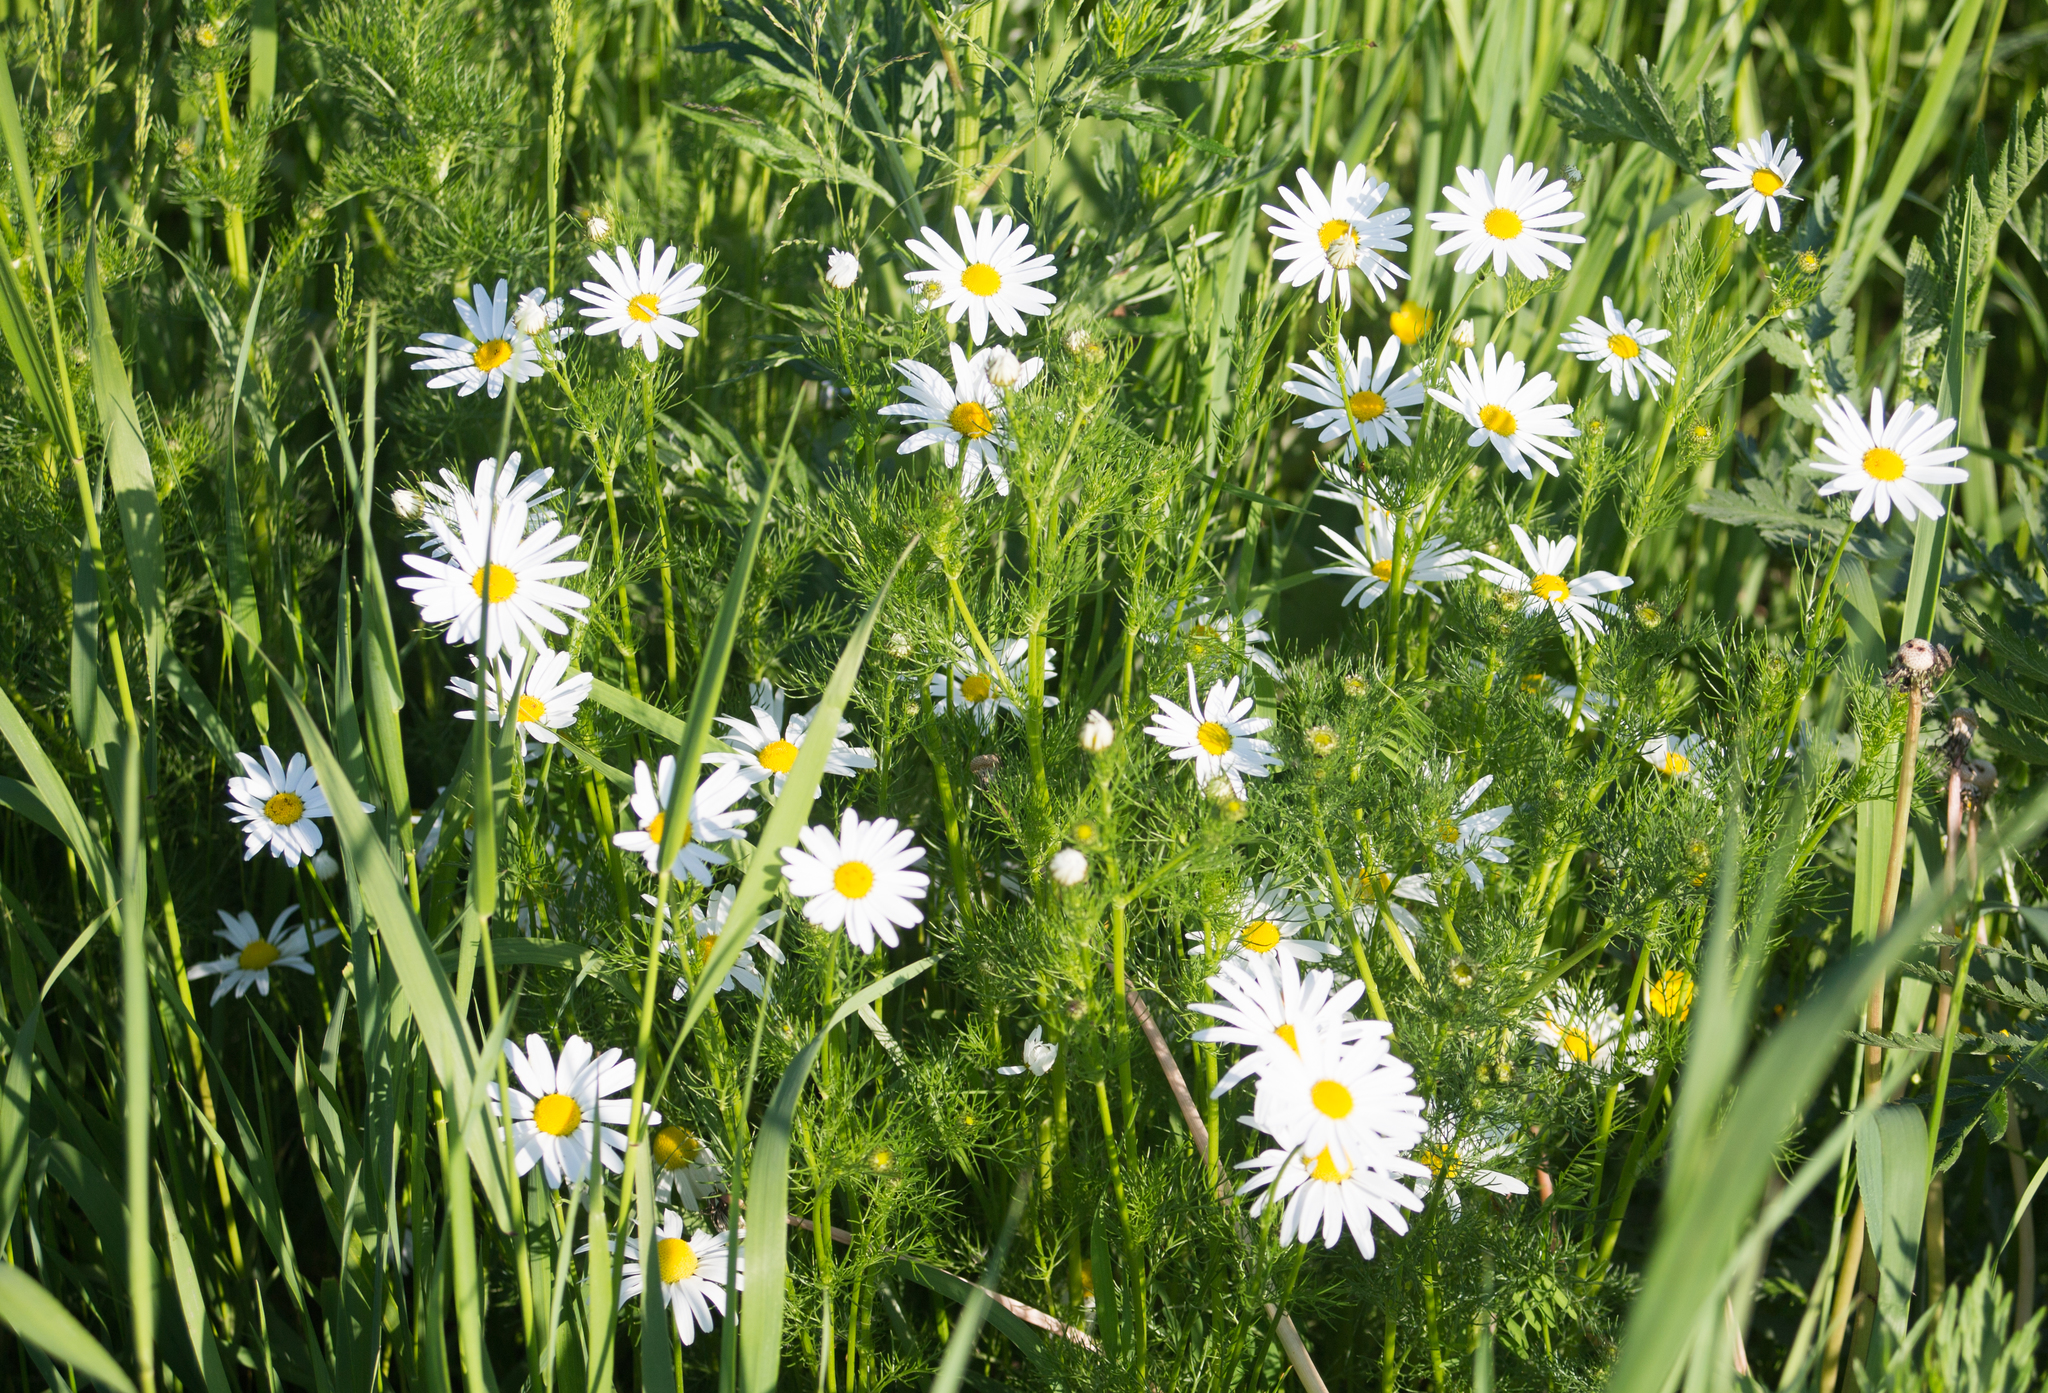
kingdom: Plantae
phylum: Tracheophyta
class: Magnoliopsida
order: Asterales
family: Asteraceae
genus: Tripleurospermum
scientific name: Tripleurospermum inodorum
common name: Scentless mayweed
